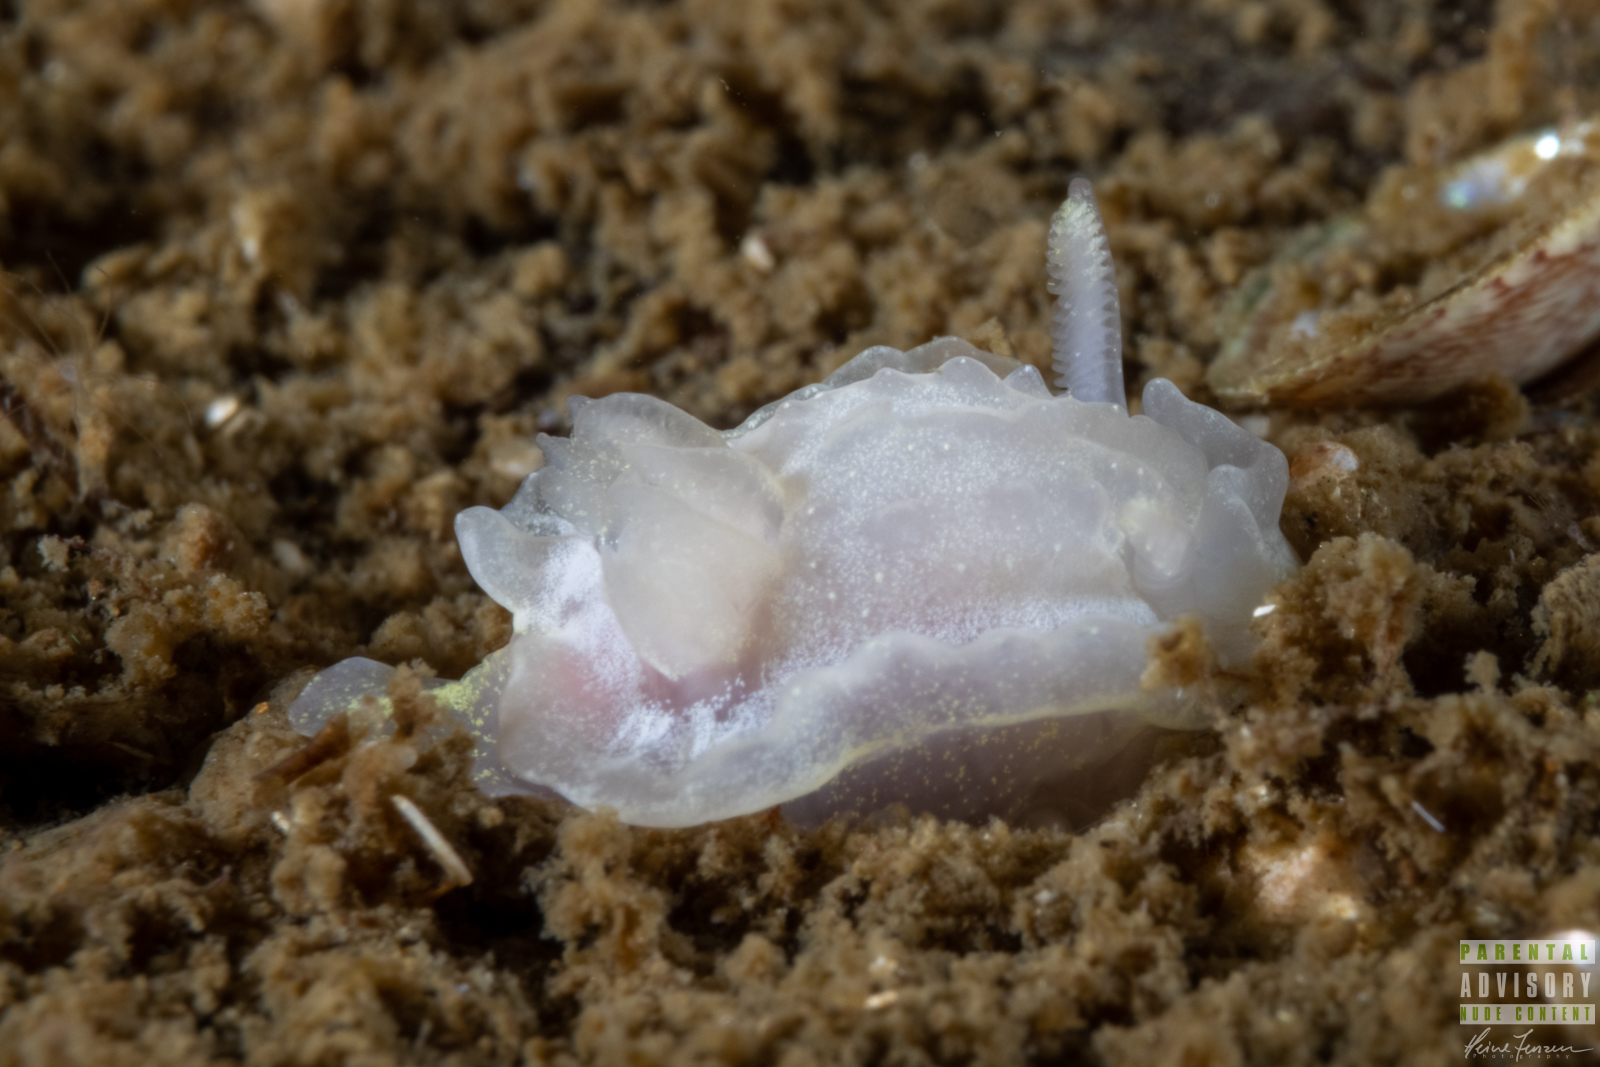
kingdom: Animalia
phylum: Mollusca
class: Gastropoda
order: Nudibranchia
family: Goniodorididae
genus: Okenia
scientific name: Okenia
